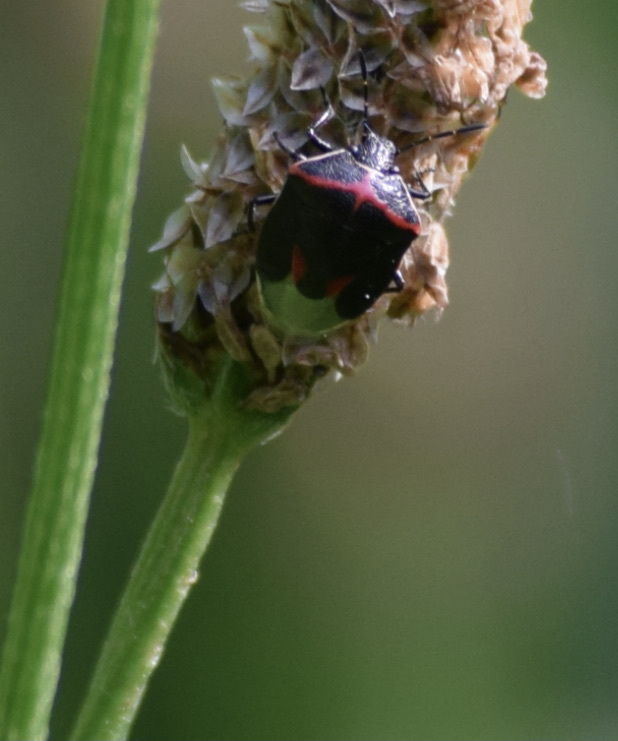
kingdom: Animalia
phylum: Arthropoda
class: Insecta
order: Hemiptera
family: Pentatomidae
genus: Cosmopepla
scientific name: Cosmopepla lintneriana
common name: Twice-stabbed stink bug
